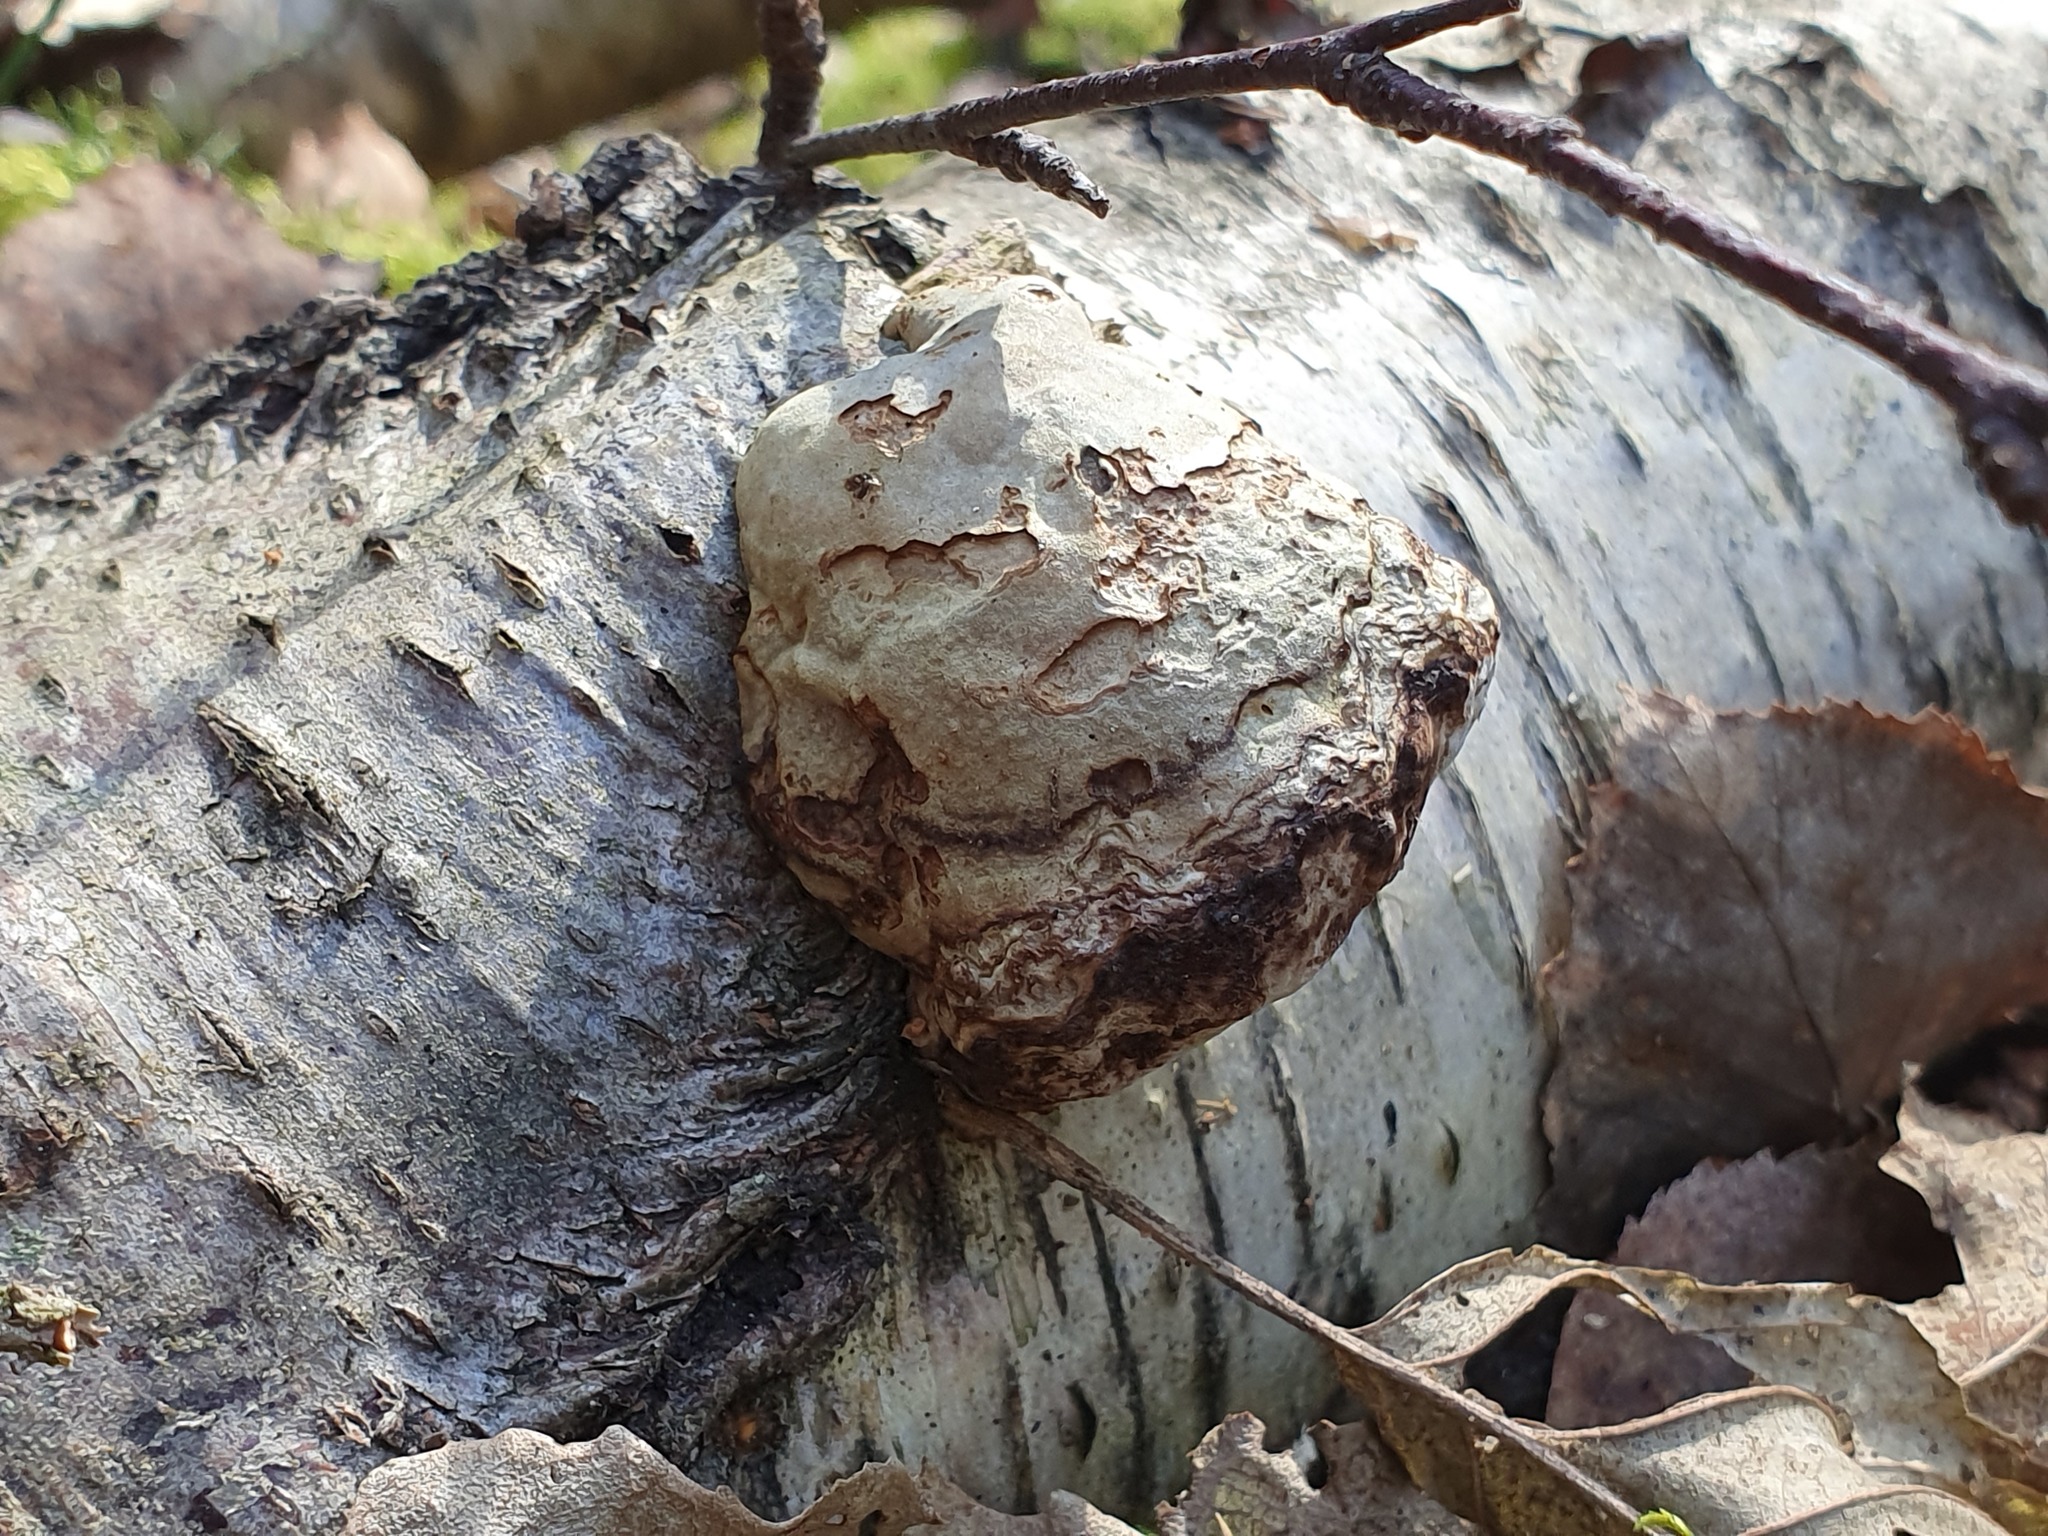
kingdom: Fungi
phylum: Basidiomycota
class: Agaricomycetes
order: Polyporales
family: Polyporaceae
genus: Fomes
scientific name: Fomes fomentarius
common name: Hoof fungus
